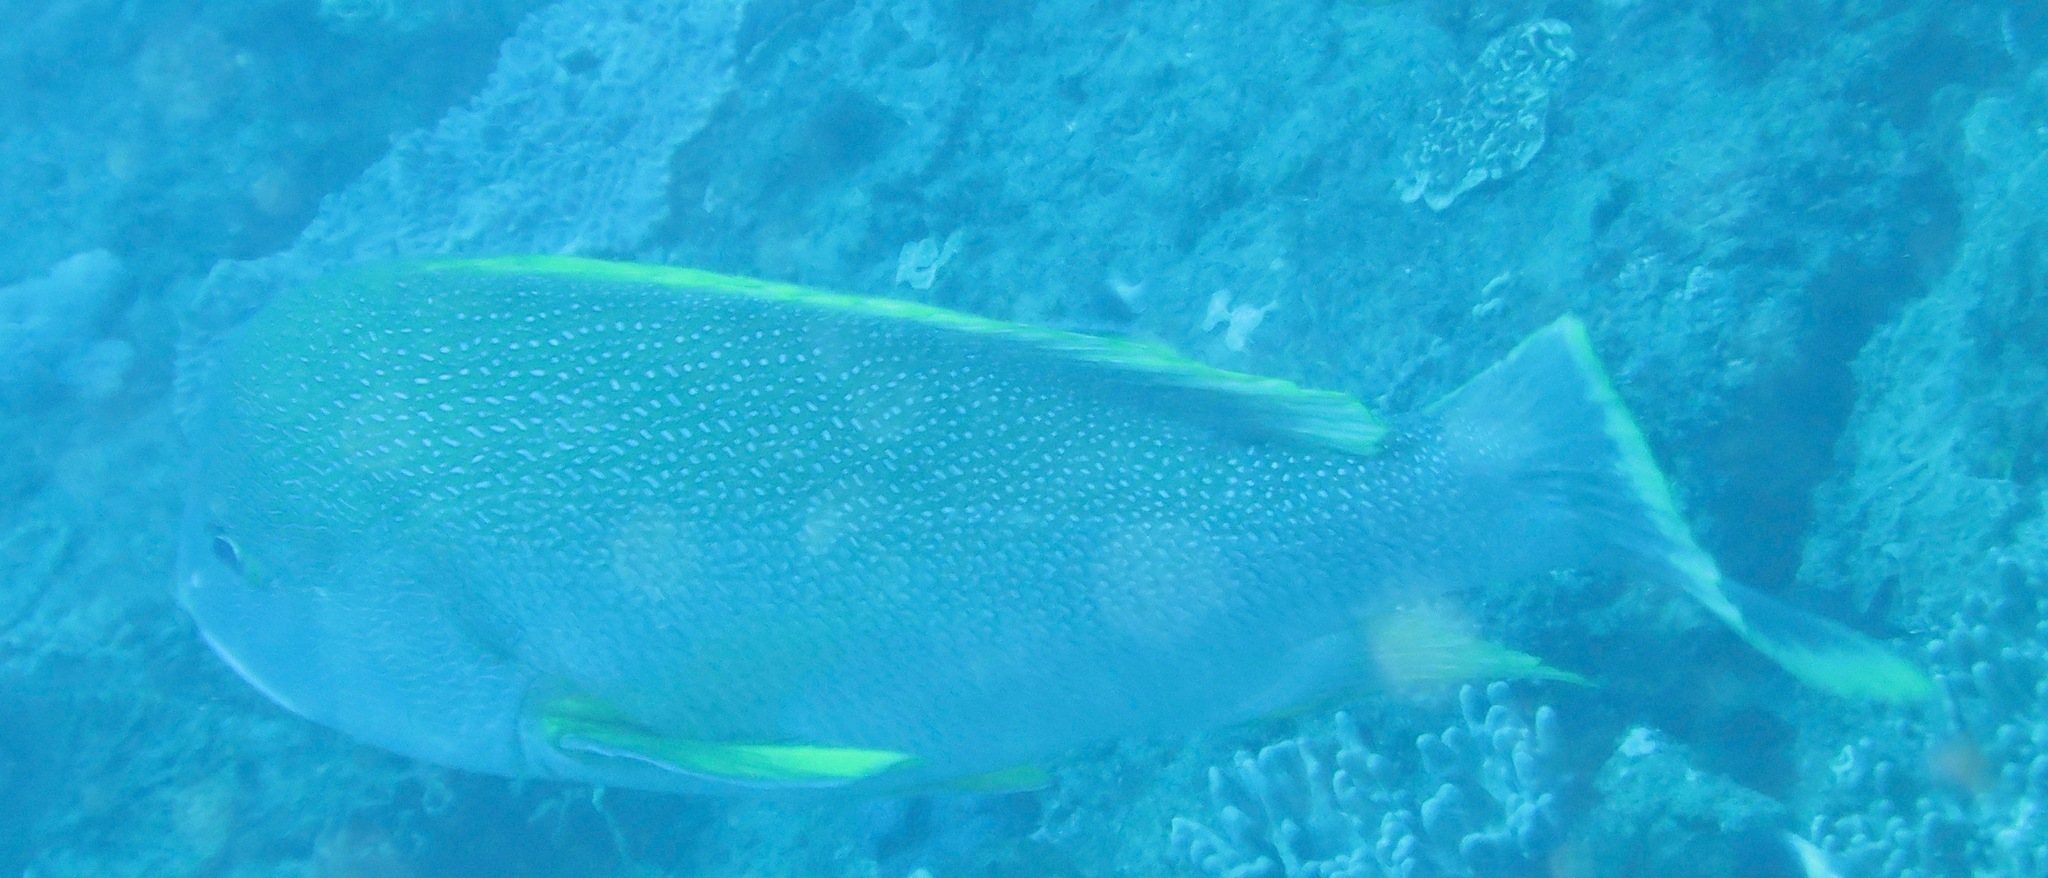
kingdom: Animalia
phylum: Chordata
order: Perciformes
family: Lutjanidae
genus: Lutjanus
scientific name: Lutjanus rivulatus
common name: Blubberlip snapper
